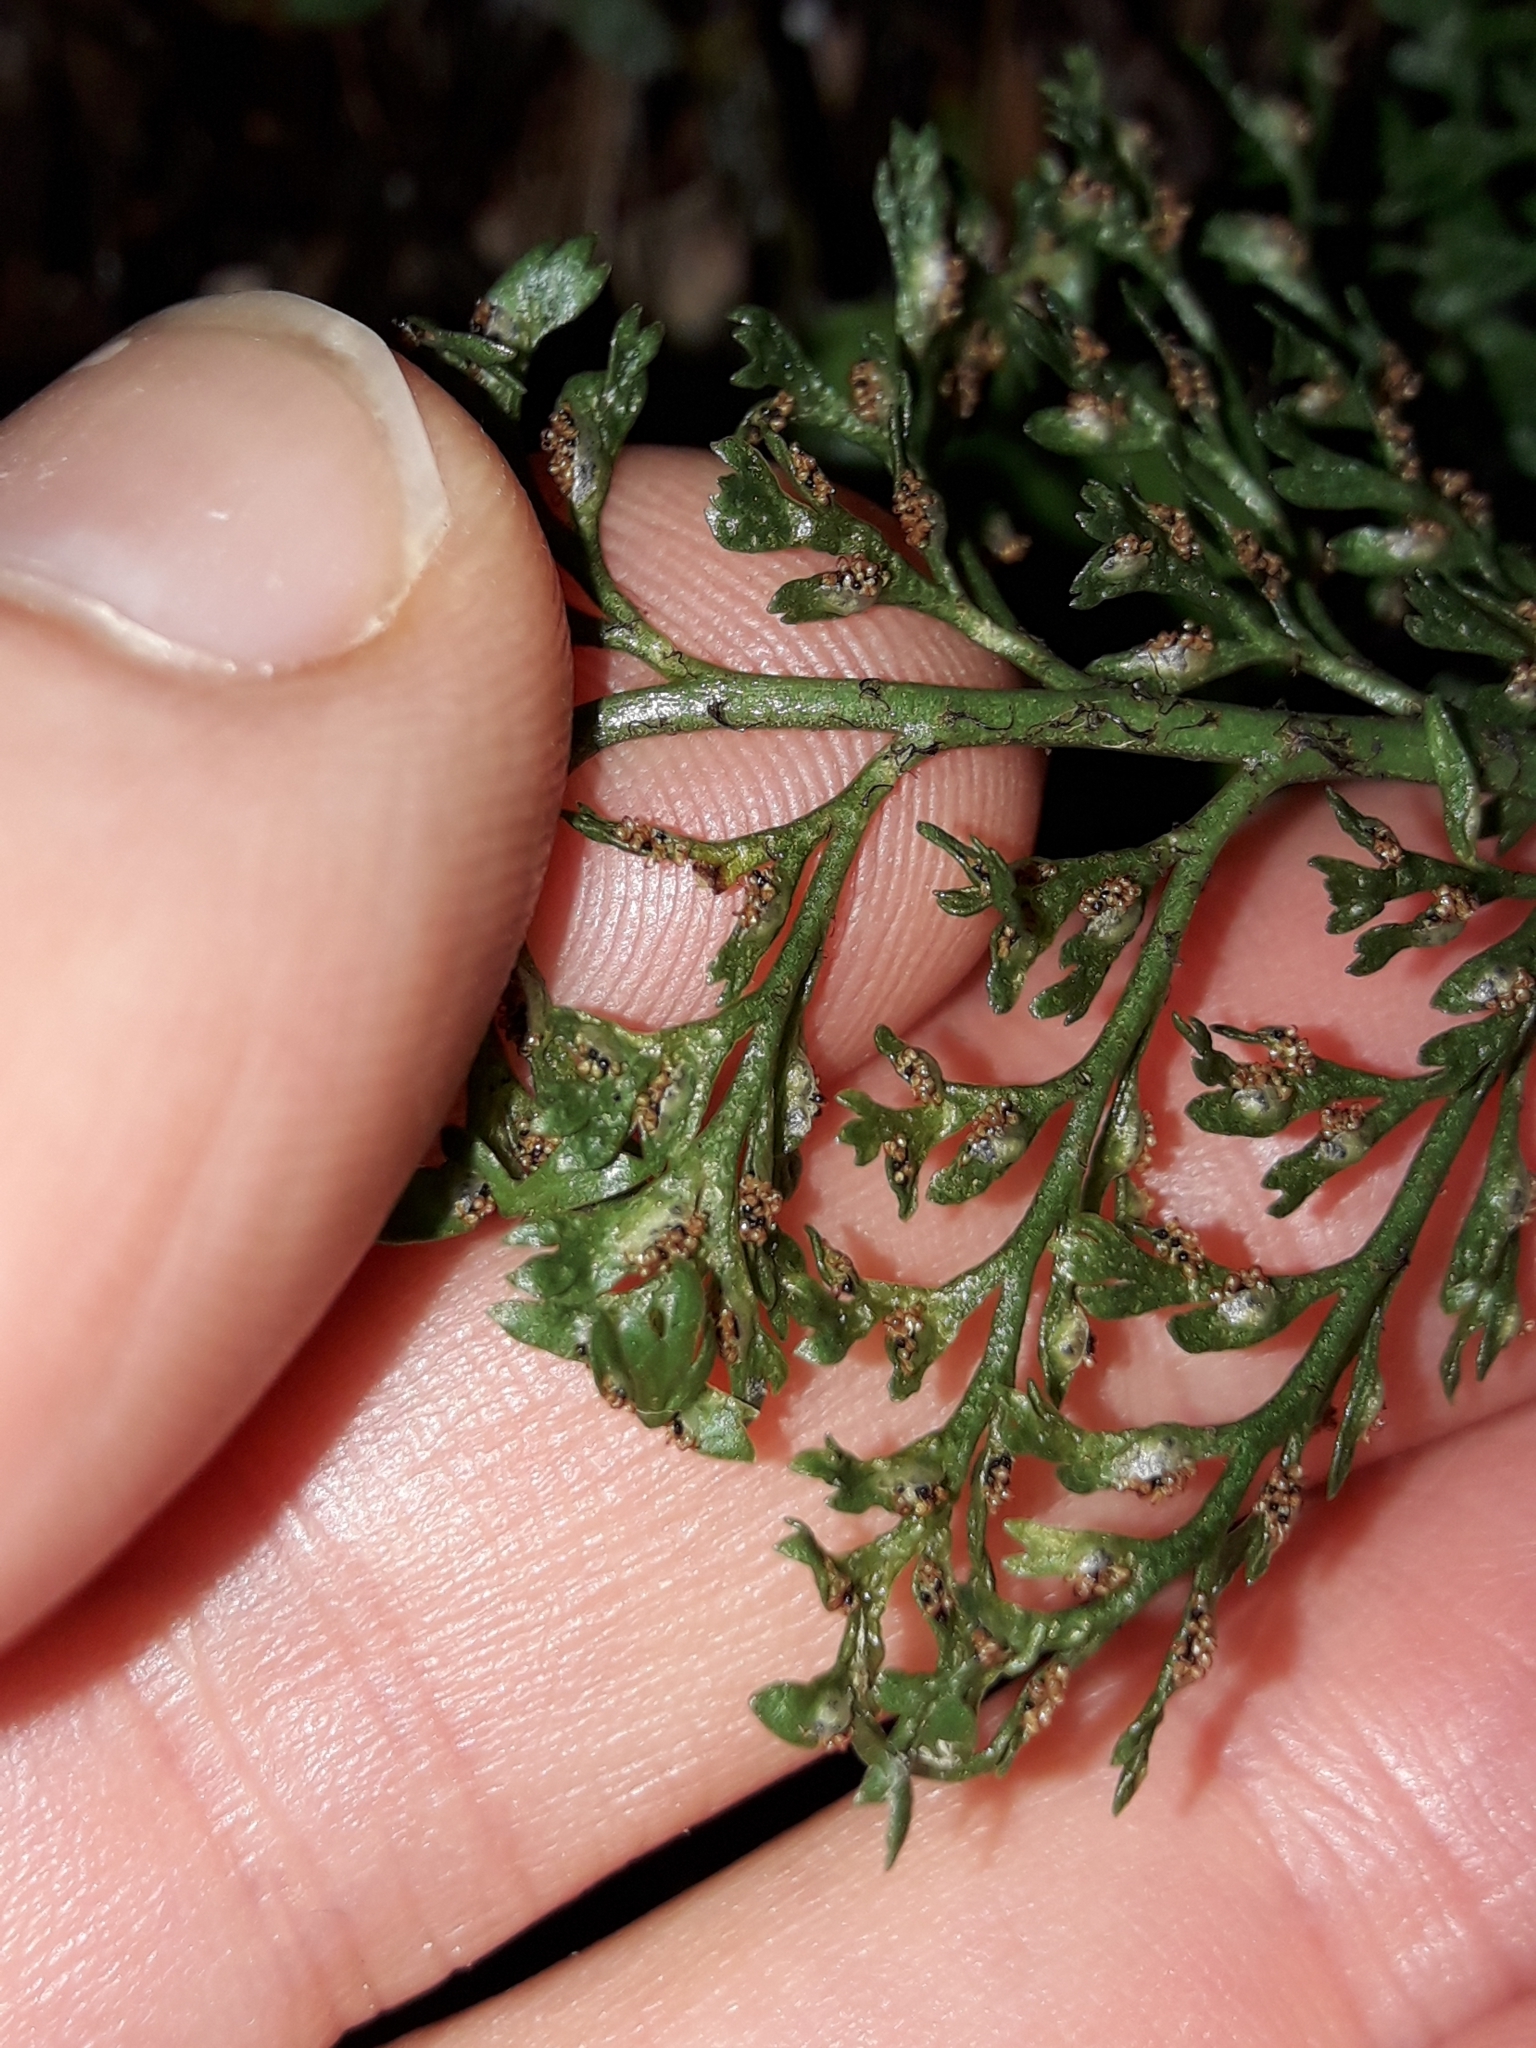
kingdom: Plantae
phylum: Tracheophyta
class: Polypodiopsida
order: Polypodiales
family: Aspleniaceae
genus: Asplenium
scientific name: Asplenium richardii
